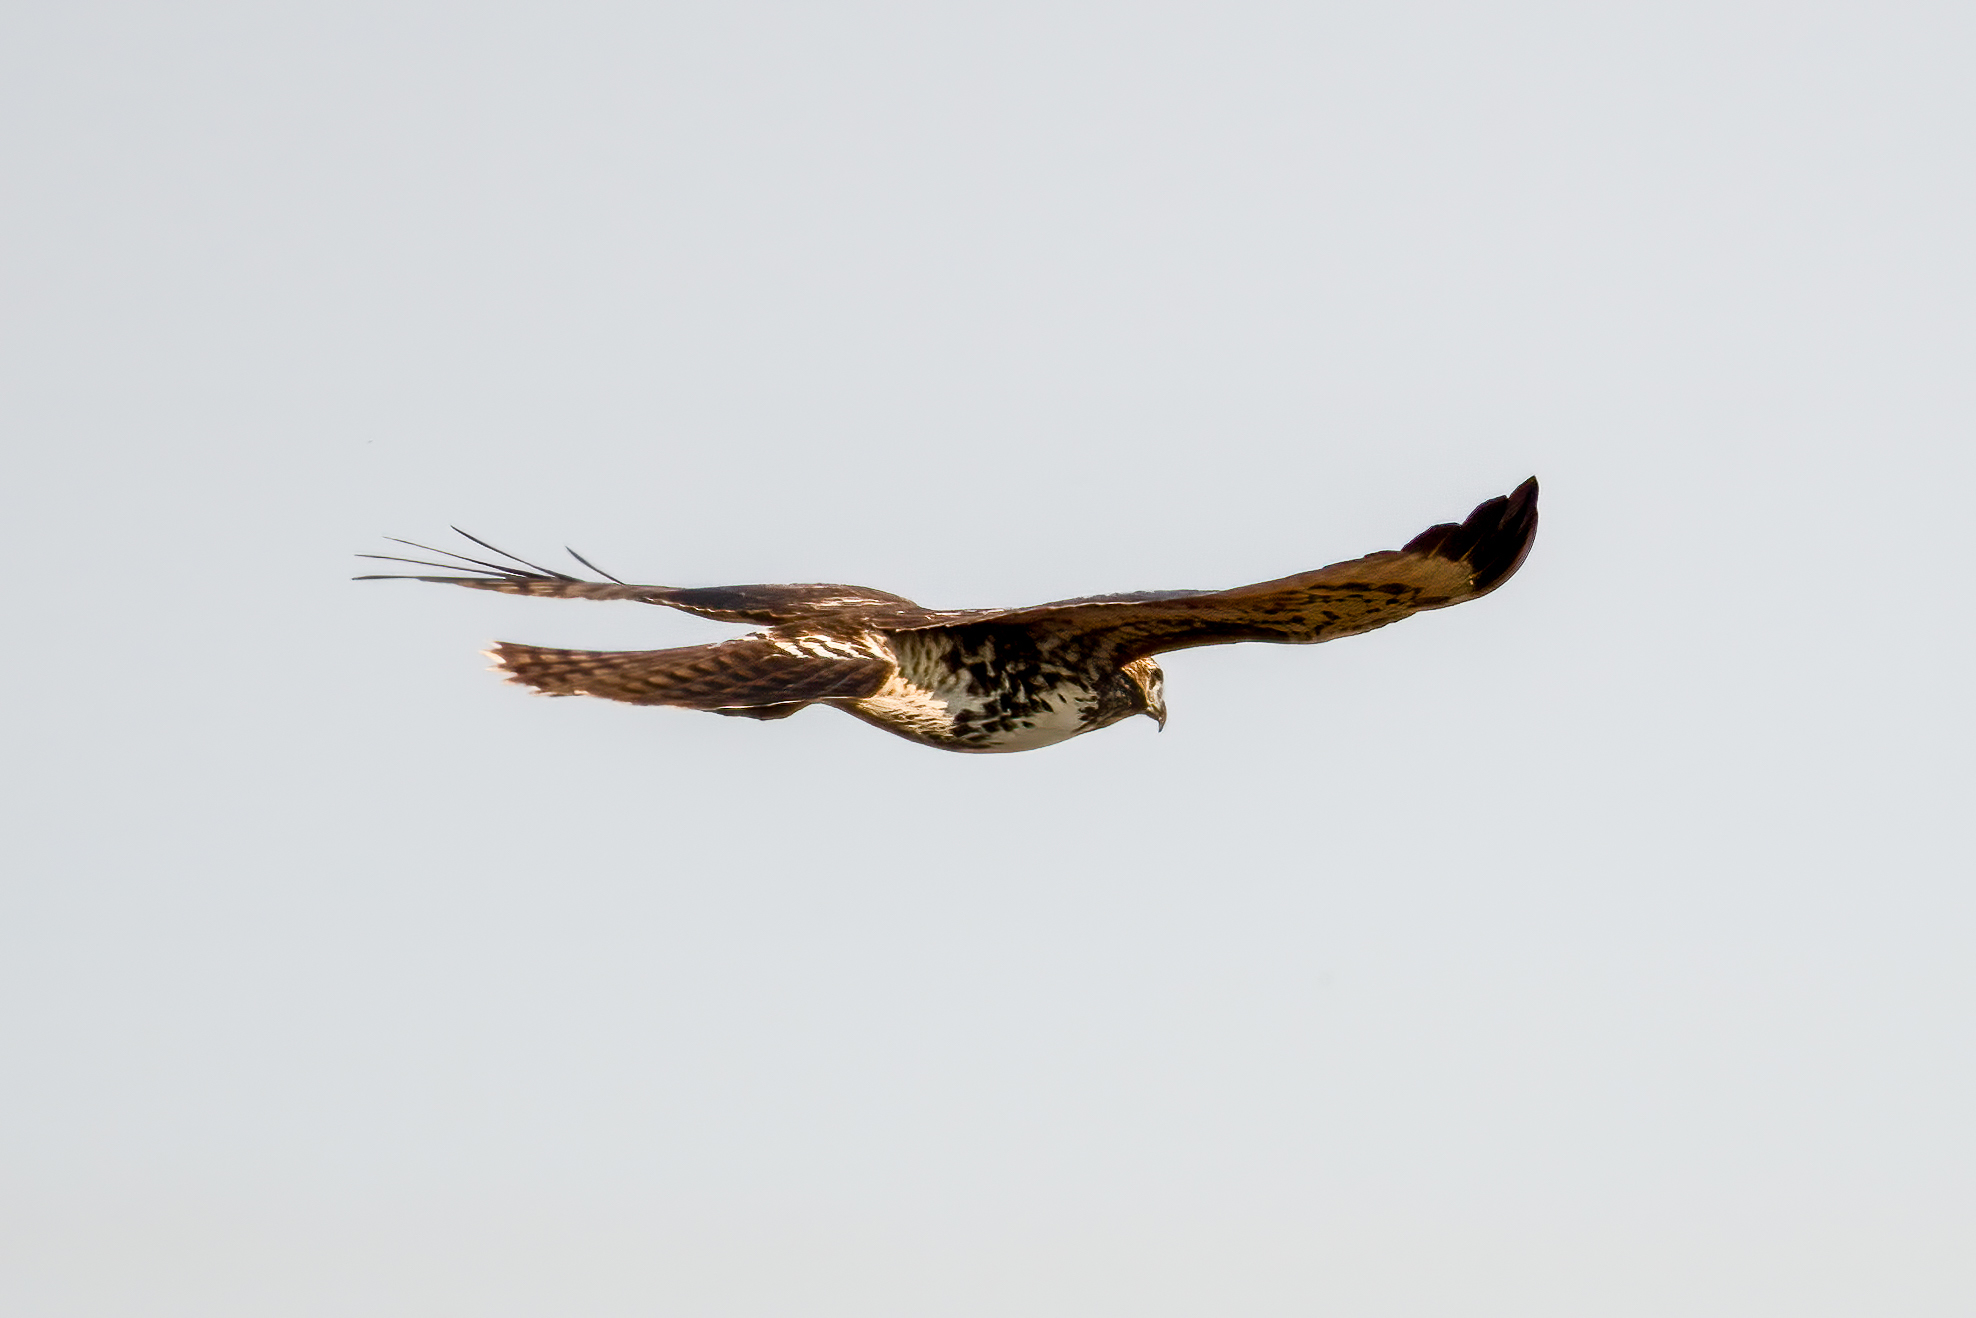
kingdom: Animalia
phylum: Chordata
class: Aves
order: Accipitriformes
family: Accipitridae
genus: Buteo
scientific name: Buteo jamaicensis
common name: Red-tailed hawk
